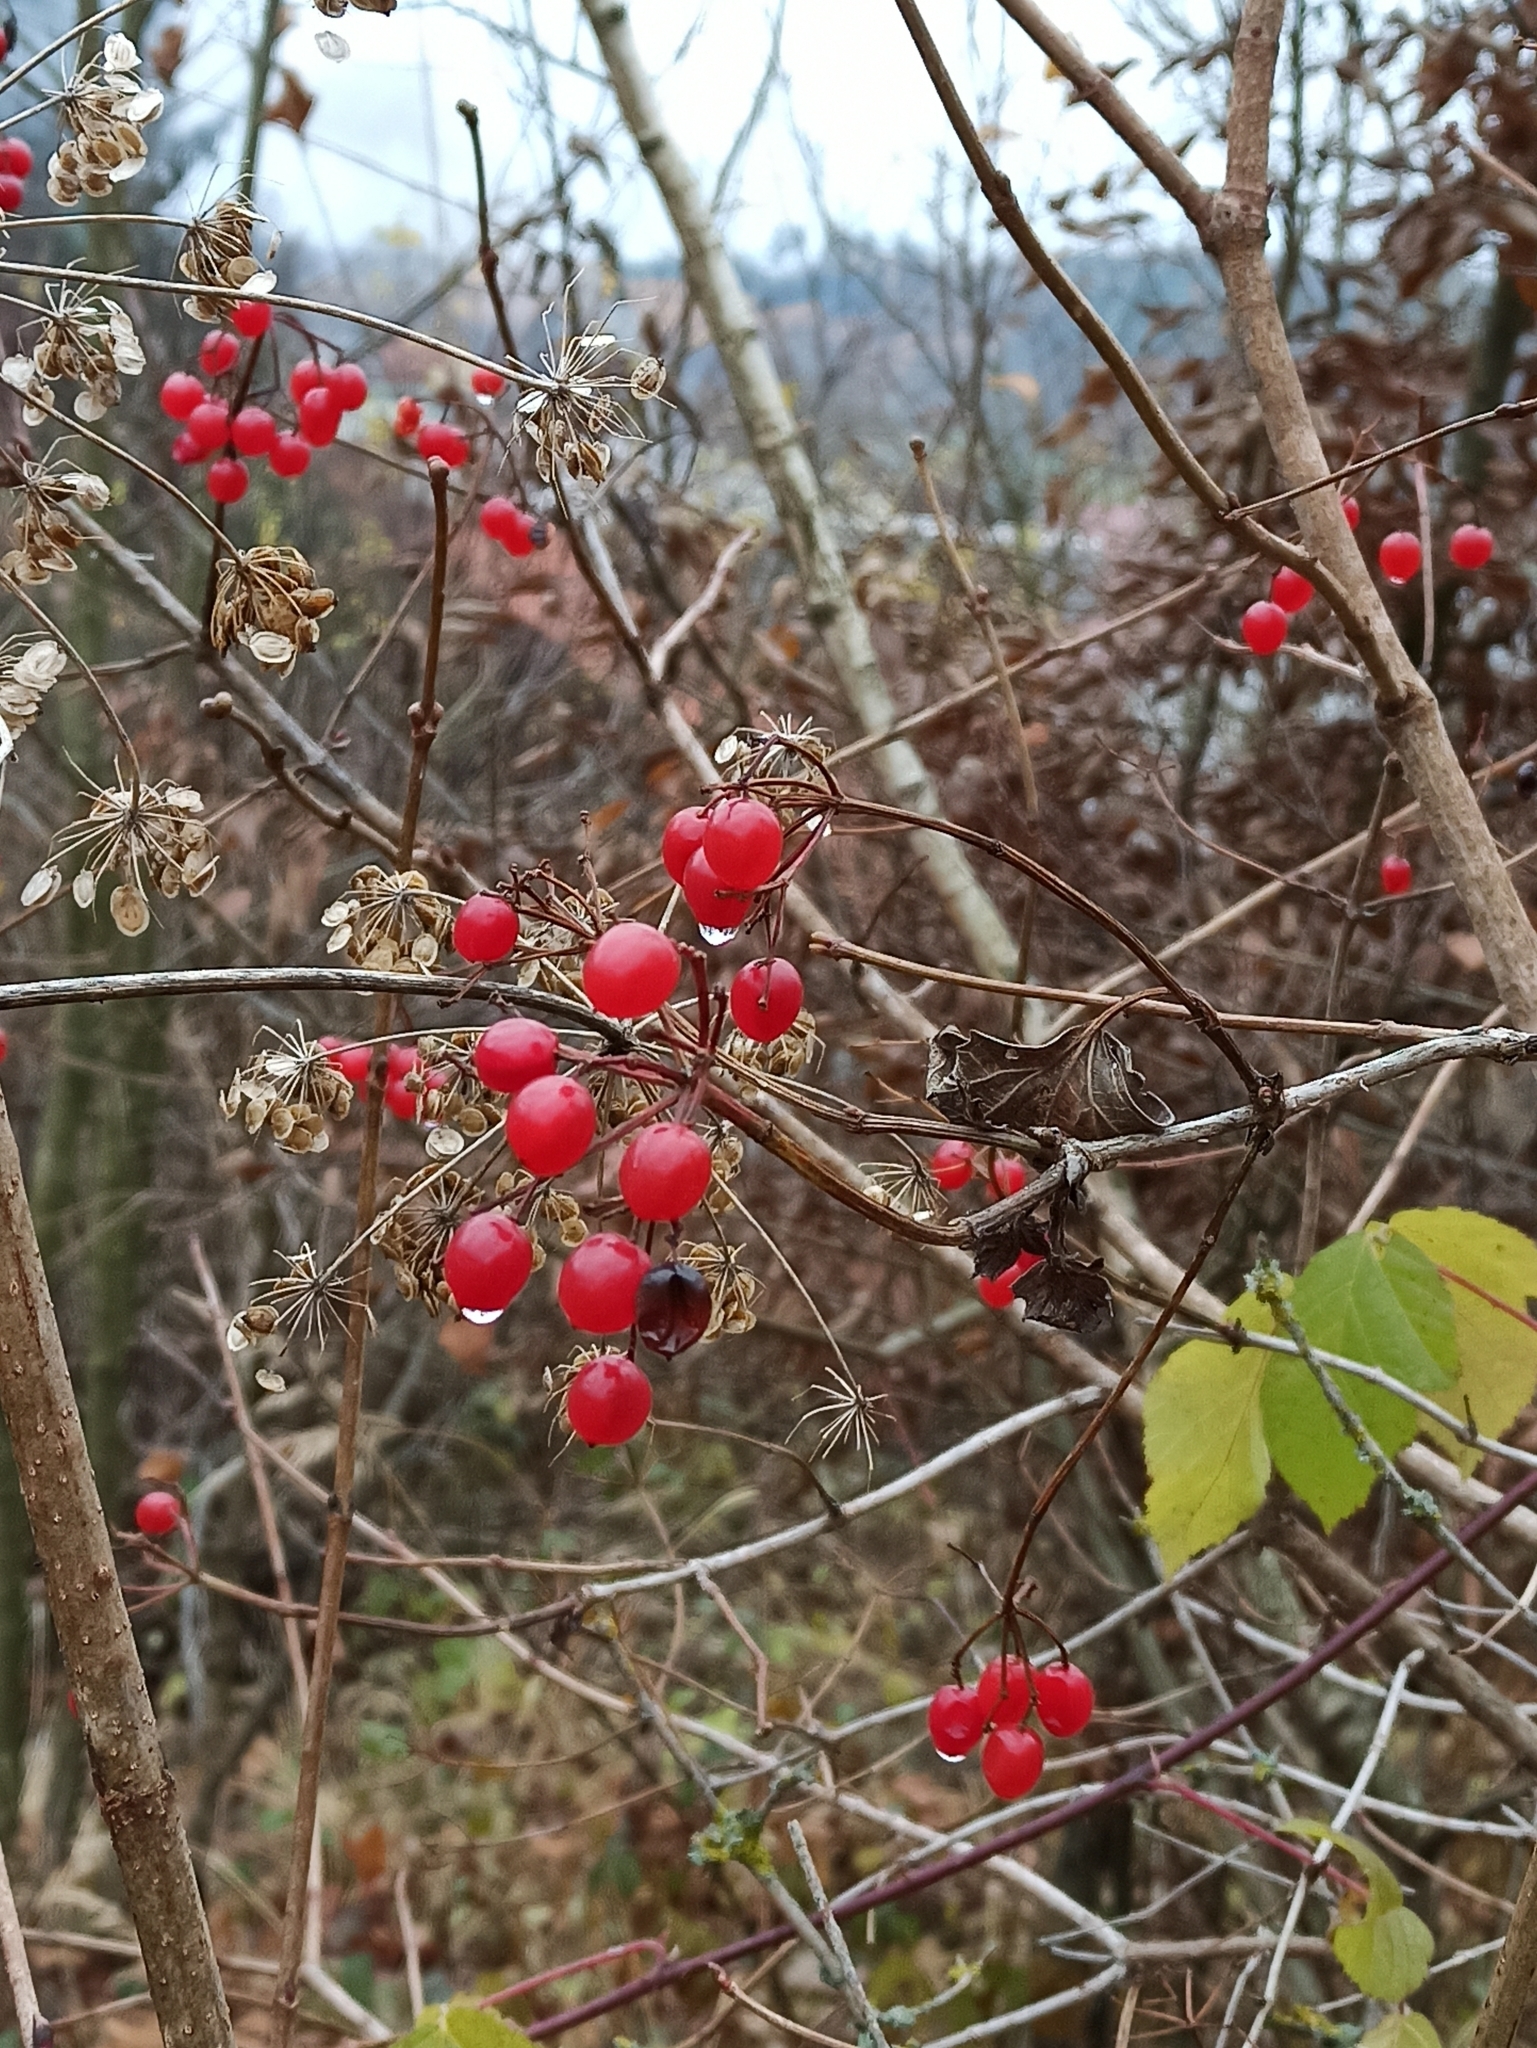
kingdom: Plantae
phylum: Tracheophyta
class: Magnoliopsida
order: Dipsacales
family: Viburnaceae
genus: Viburnum
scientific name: Viburnum opulus
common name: Guelder-rose
